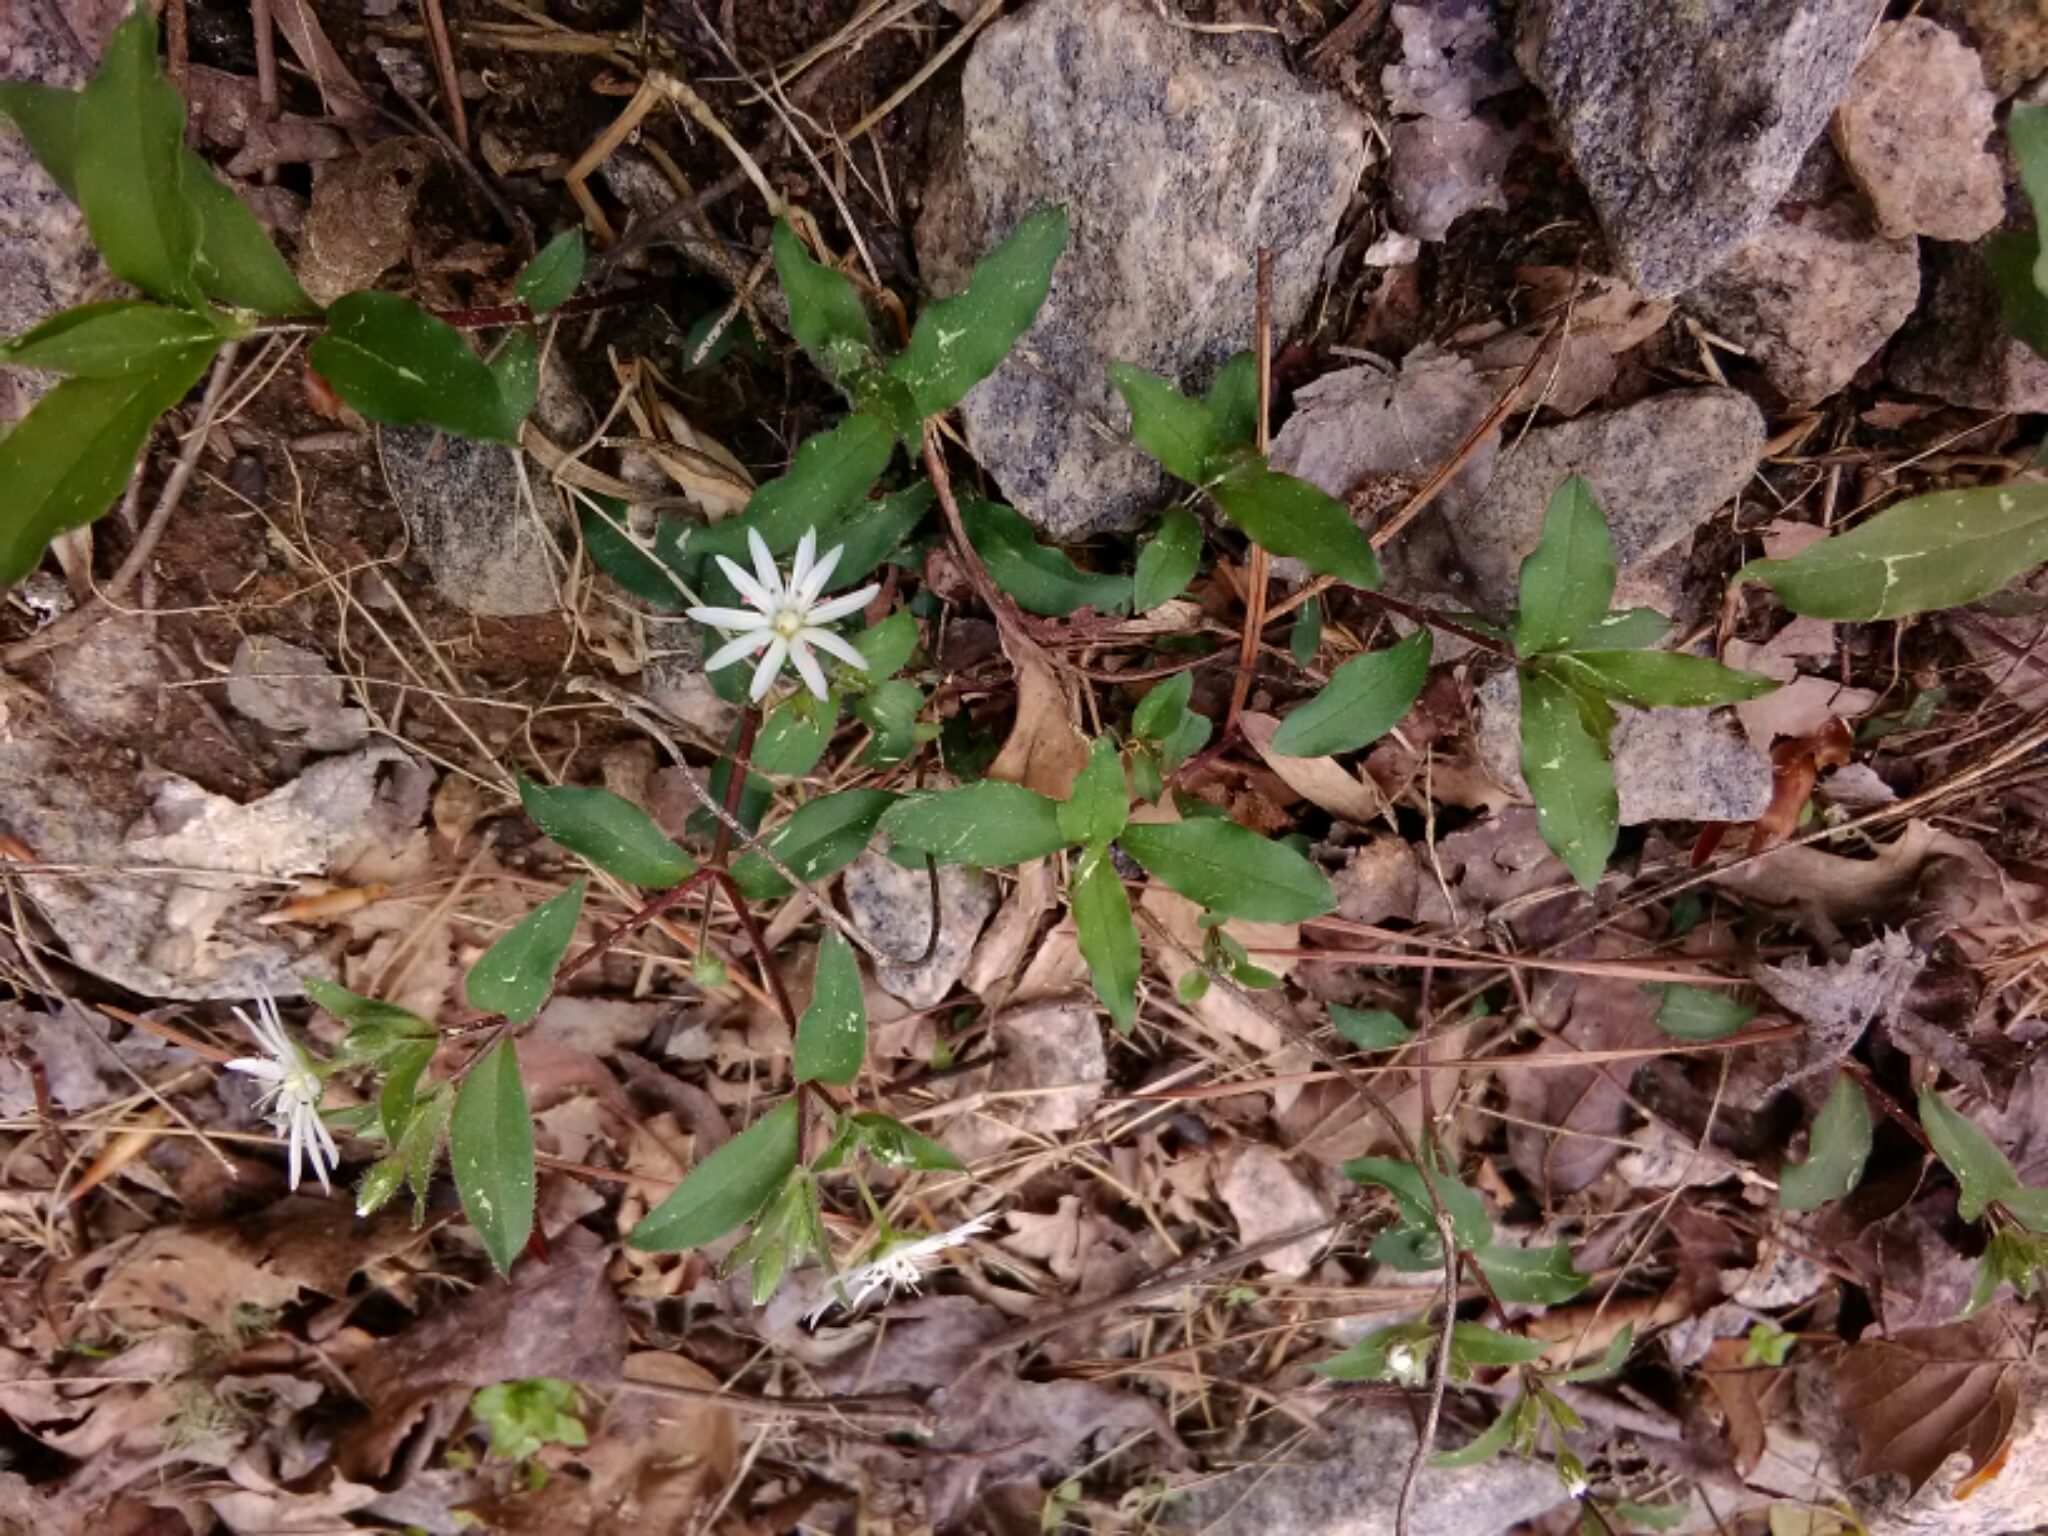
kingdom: Plantae
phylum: Tracheophyta
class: Magnoliopsida
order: Caryophyllales
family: Caryophyllaceae
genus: Stellaria
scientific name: Stellaria pubera
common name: Star chickweed
